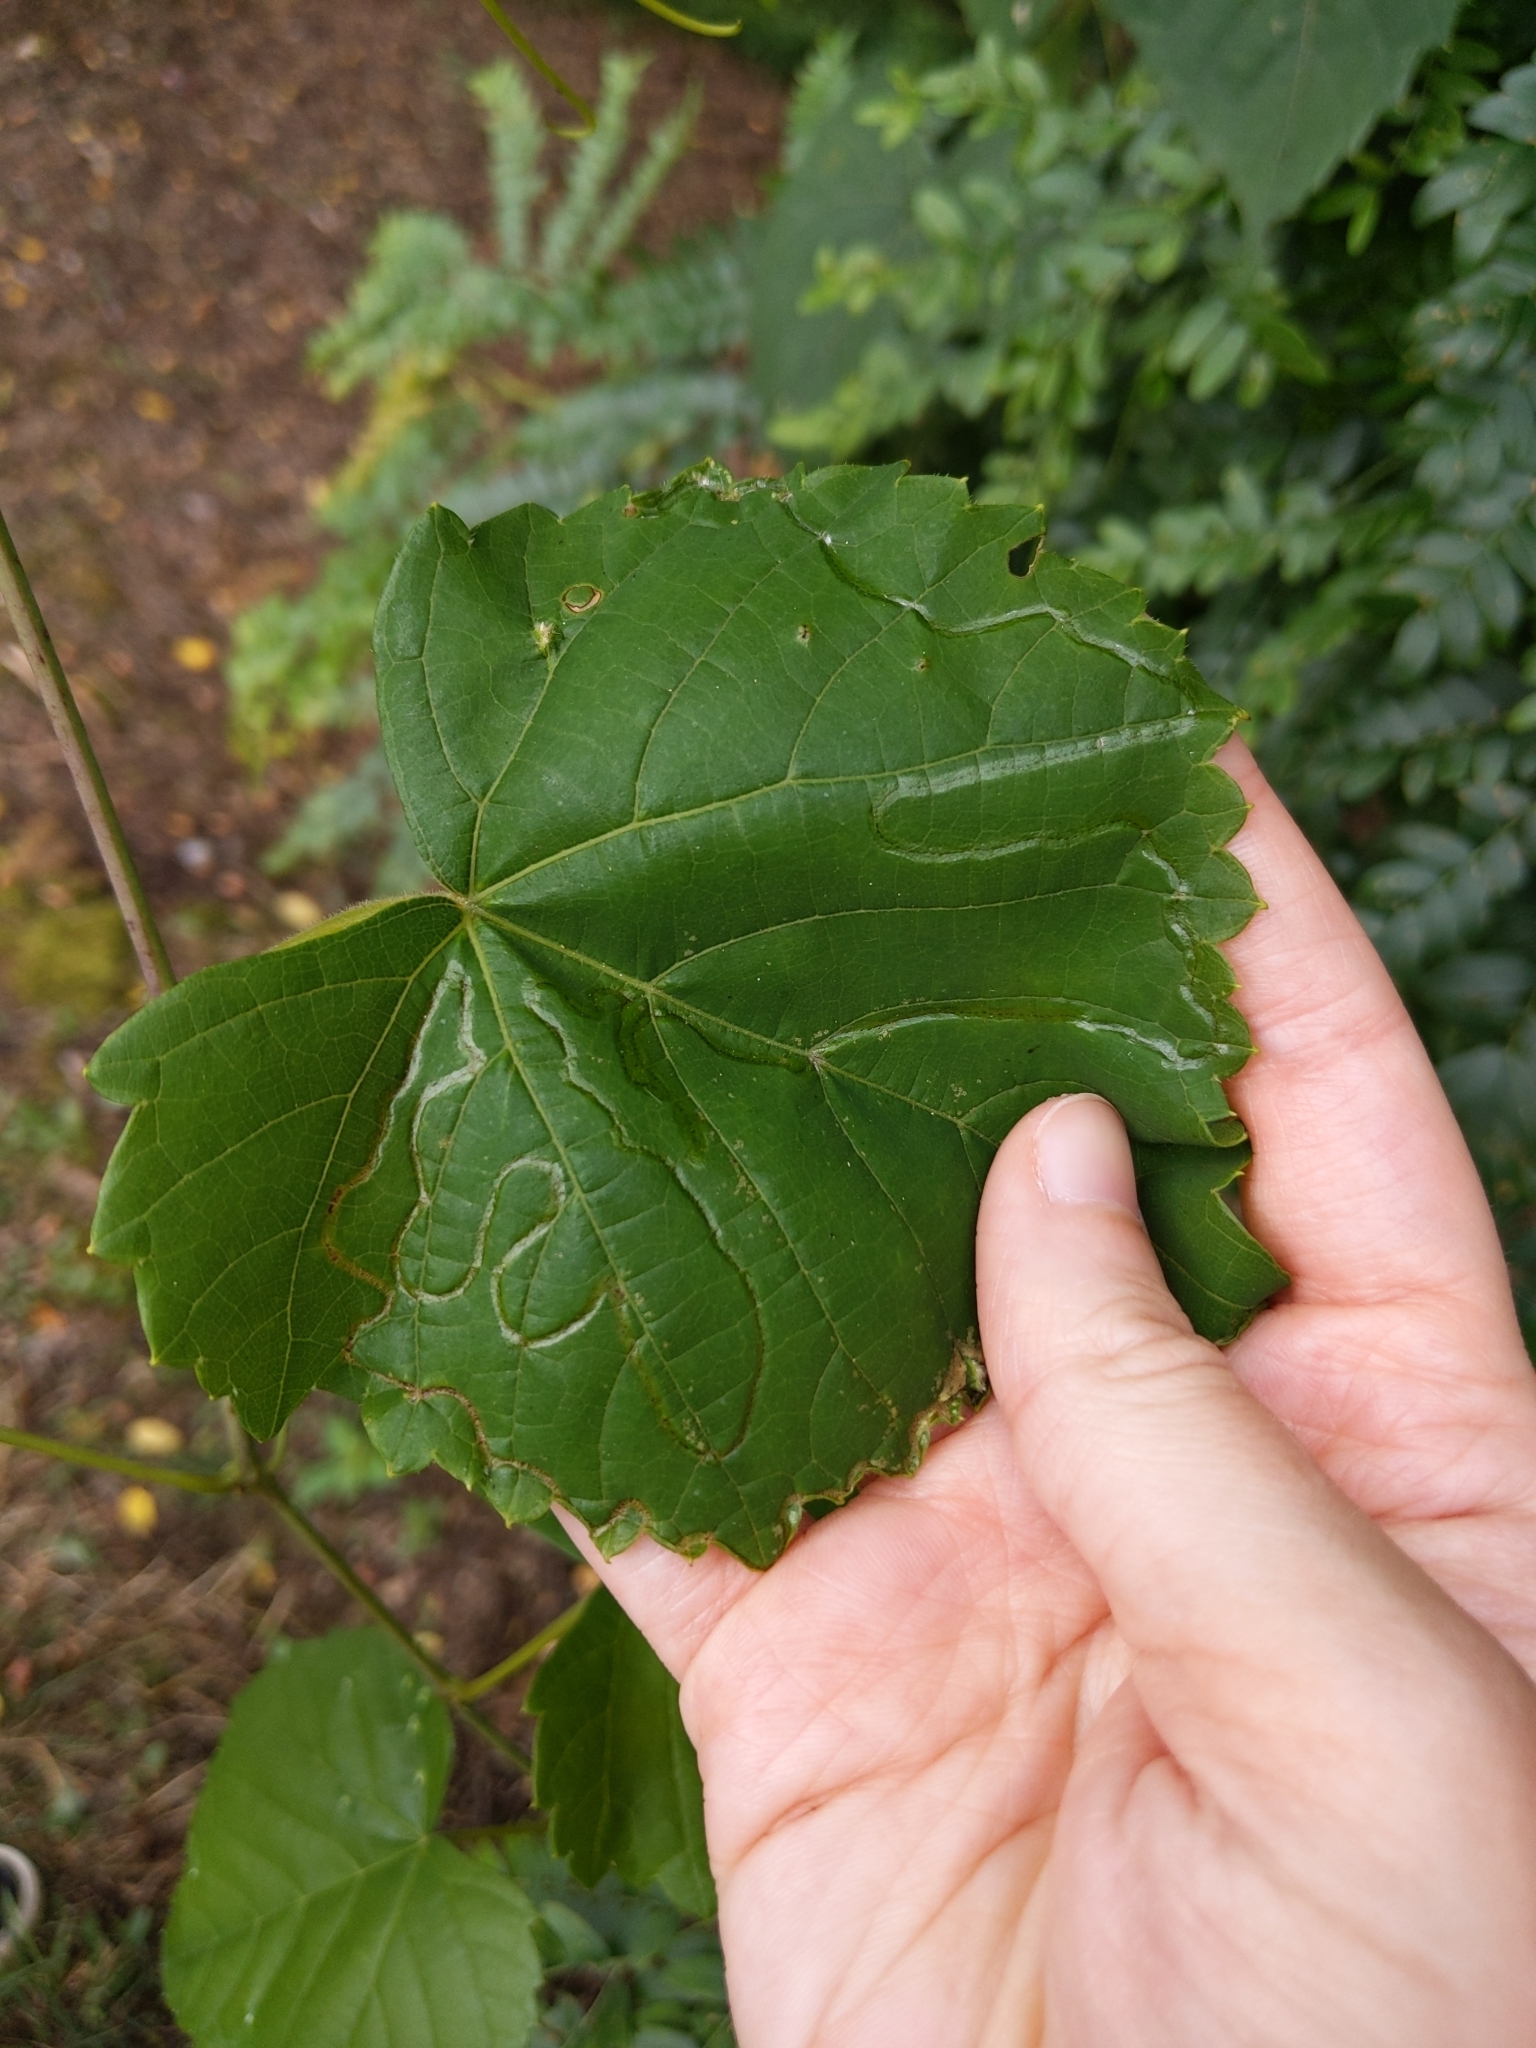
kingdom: Animalia
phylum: Arthropoda
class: Insecta
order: Lepidoptera
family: Gracillariidae
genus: Phyllocnistis
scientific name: Phyllocnistis vitegenella
